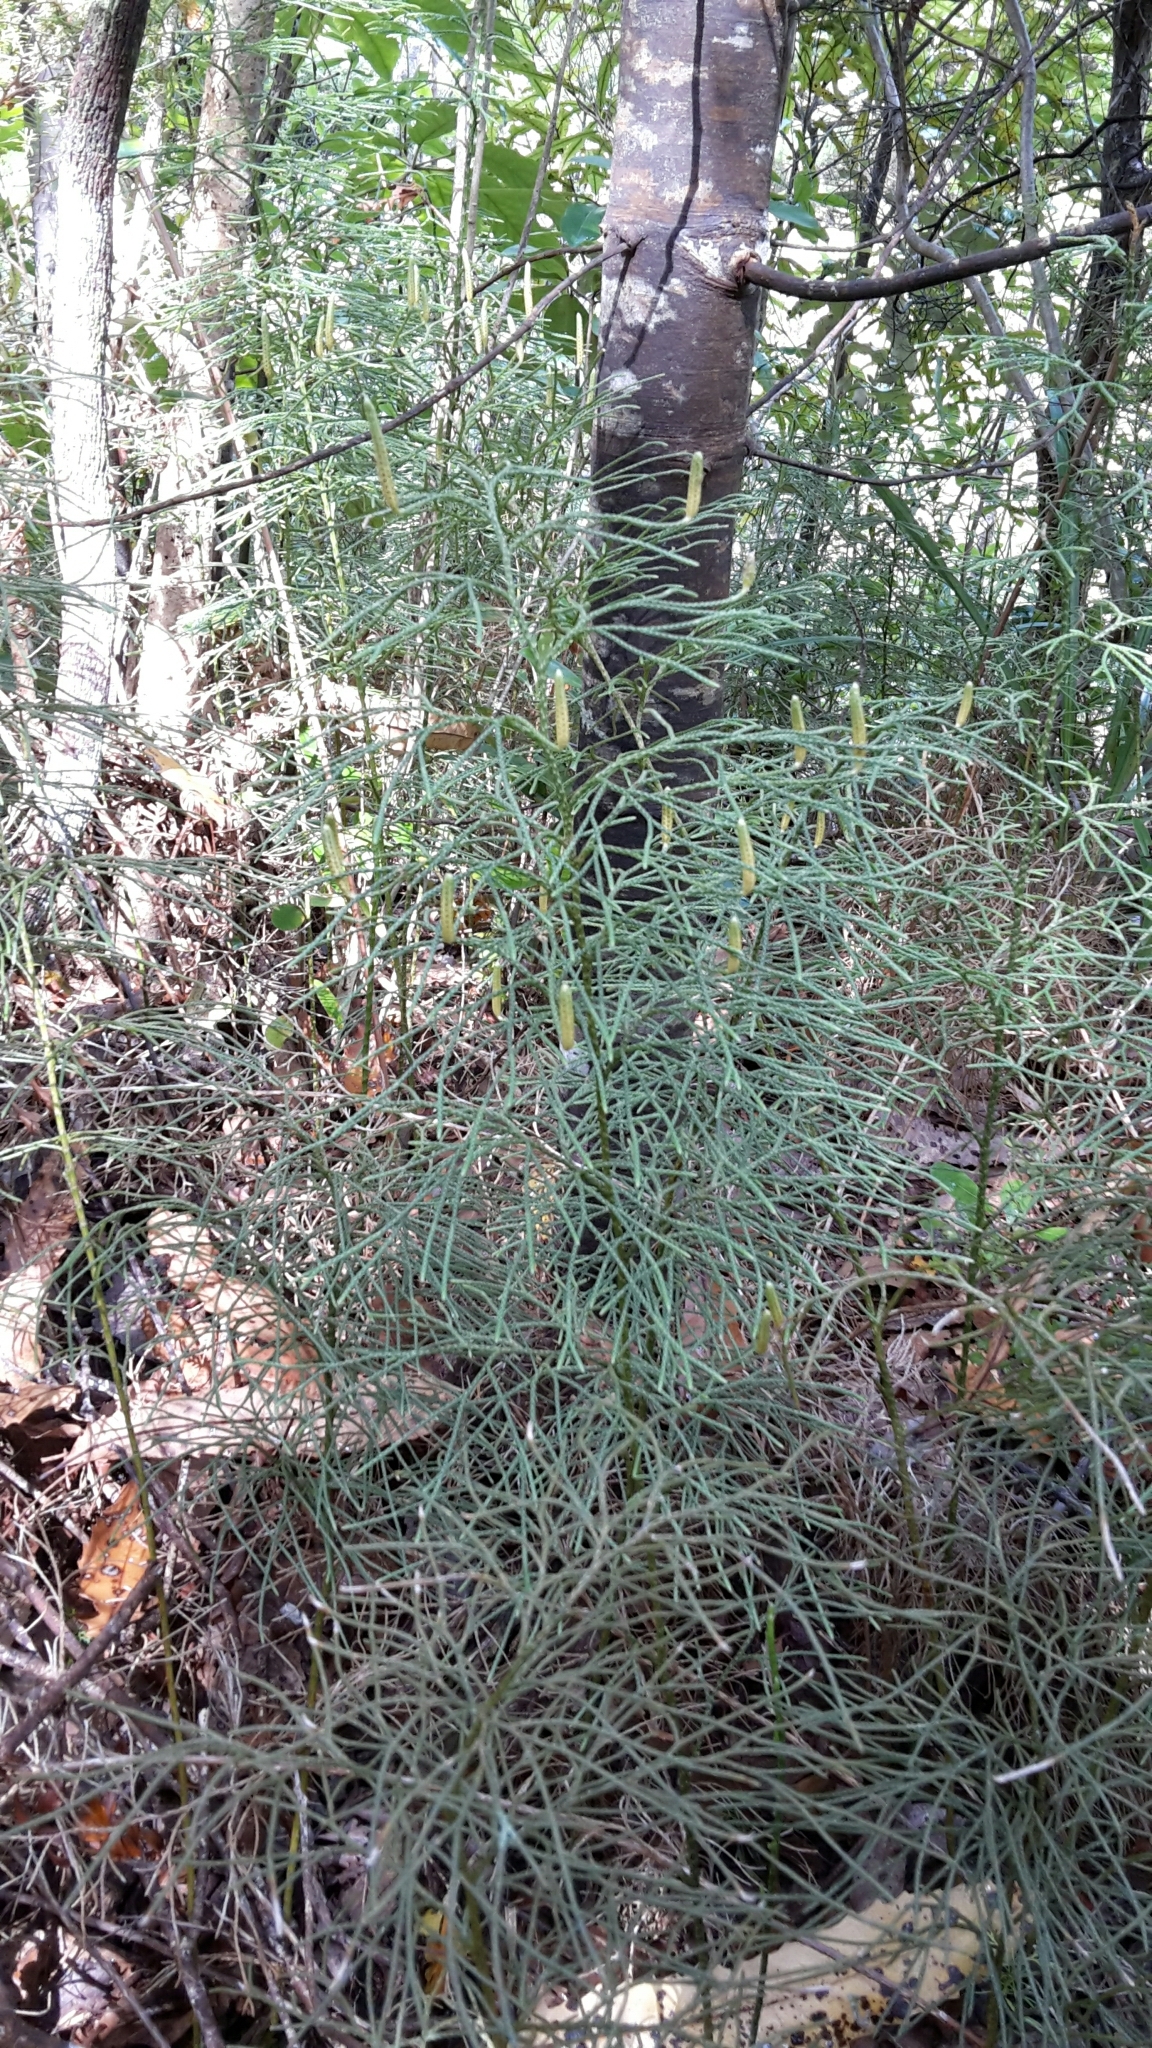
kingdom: Plantae
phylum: Tracheophyta
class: Lycopodiopsida
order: Lycopodiales
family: Lycopodiaceae
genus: Pseudolycopodium
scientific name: Pseudolycopodium densum
